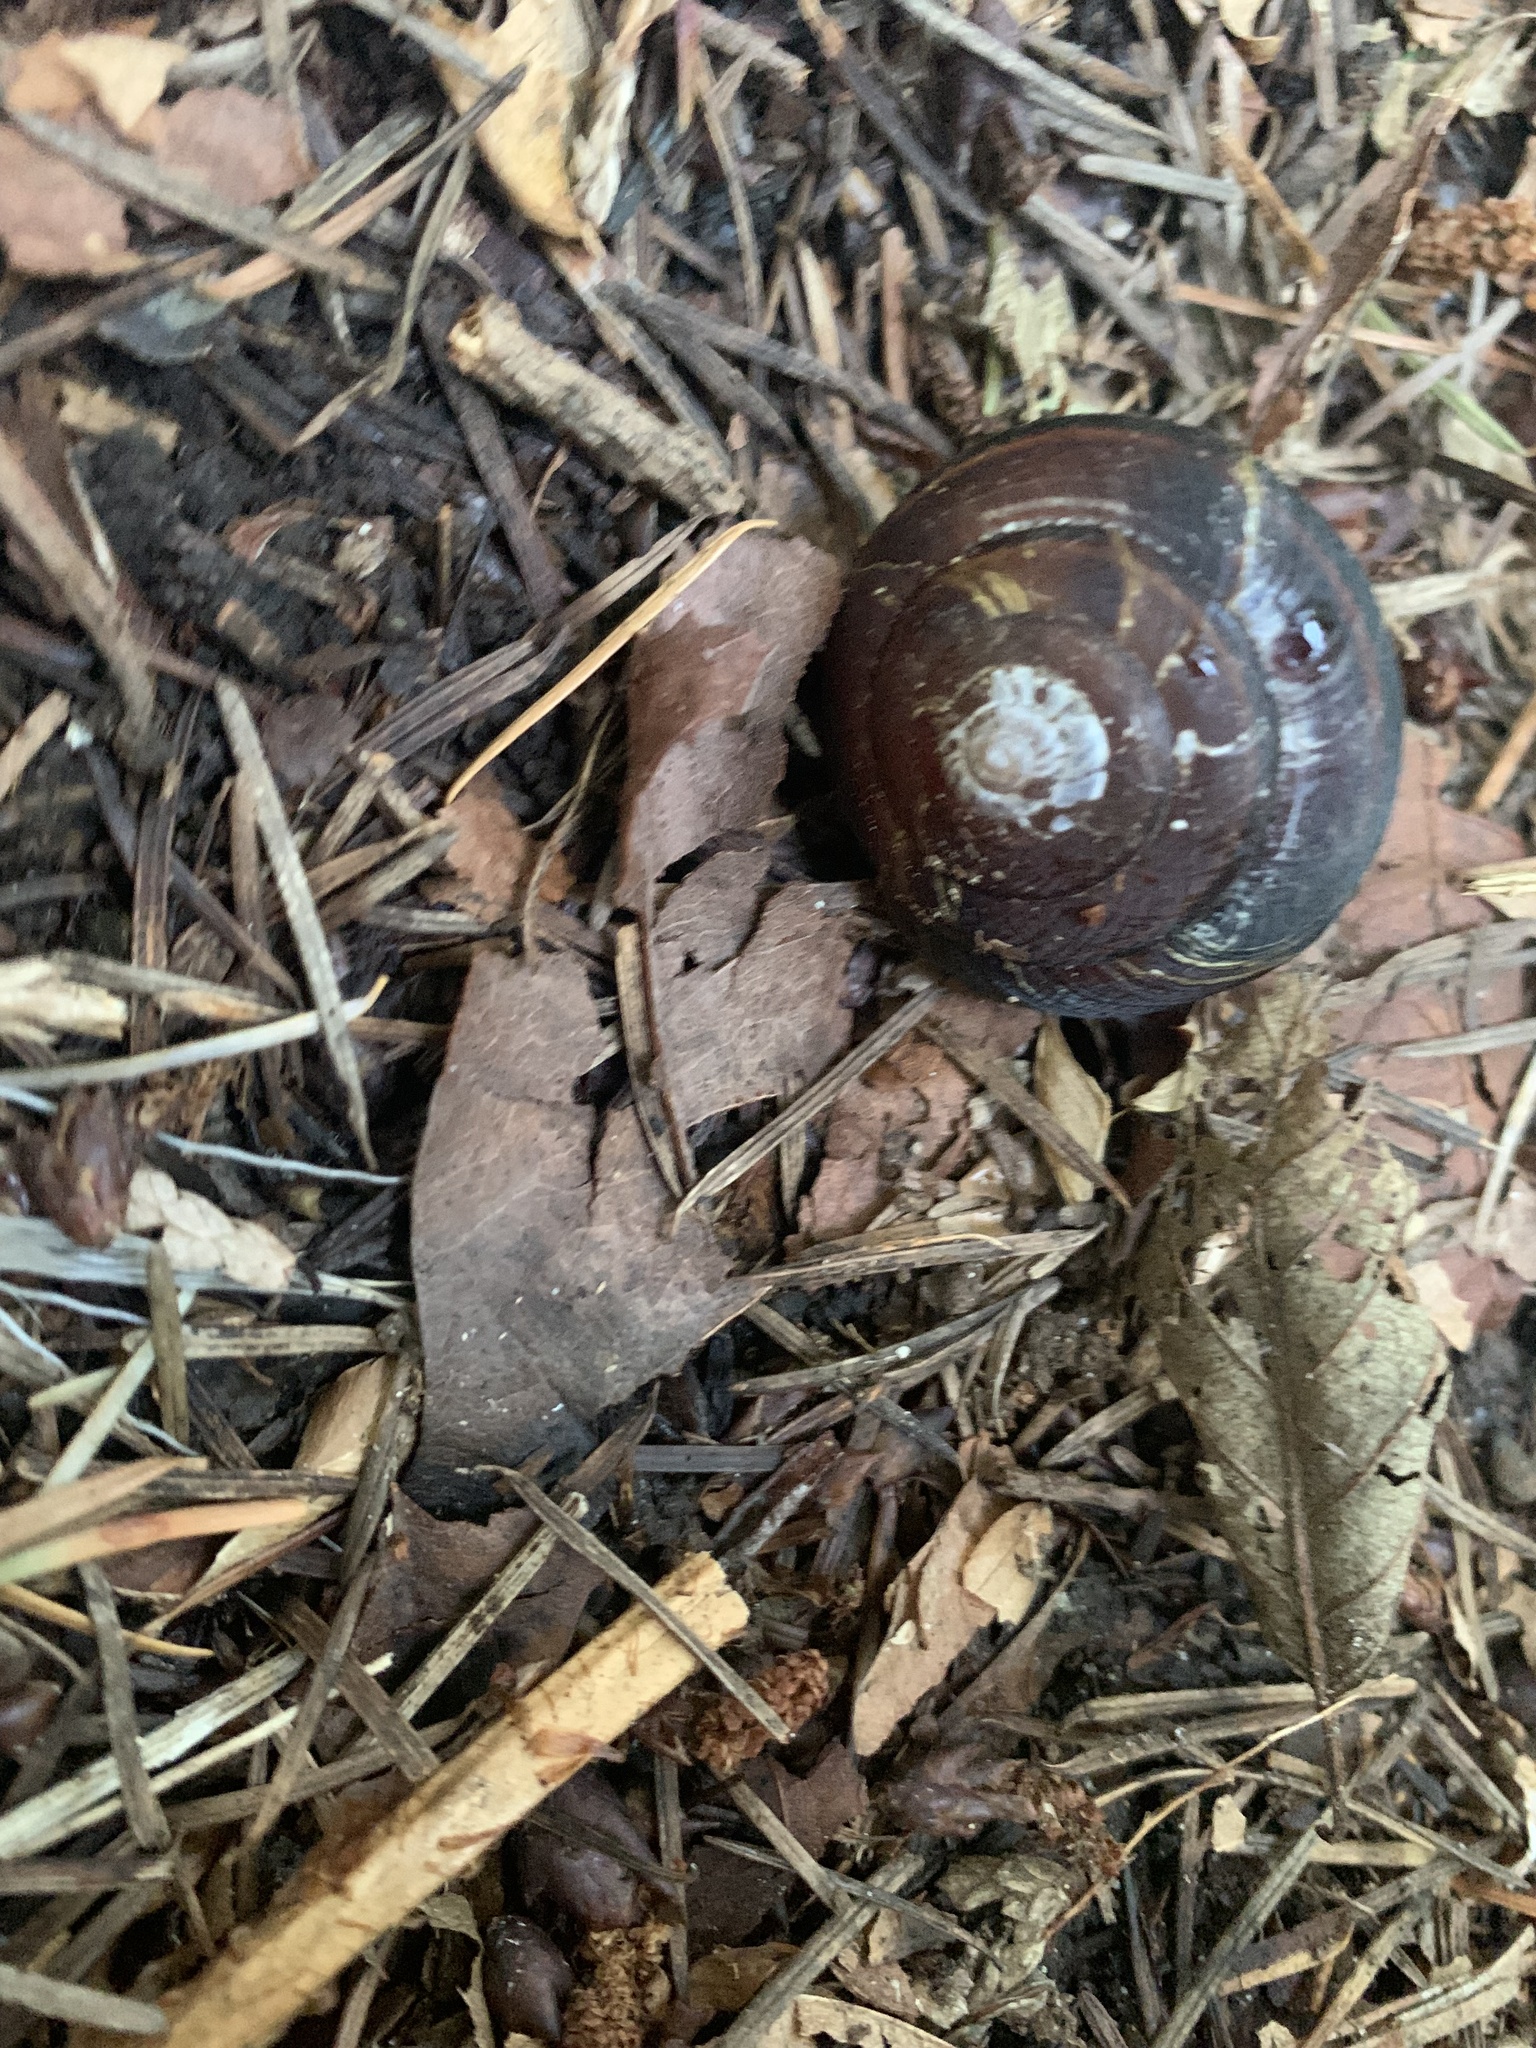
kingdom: Animalia
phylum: Mollusca
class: Gastropoda
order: Stylommatophora
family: Xanthonychidae
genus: Monadenia
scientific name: Monadenia fidelis
